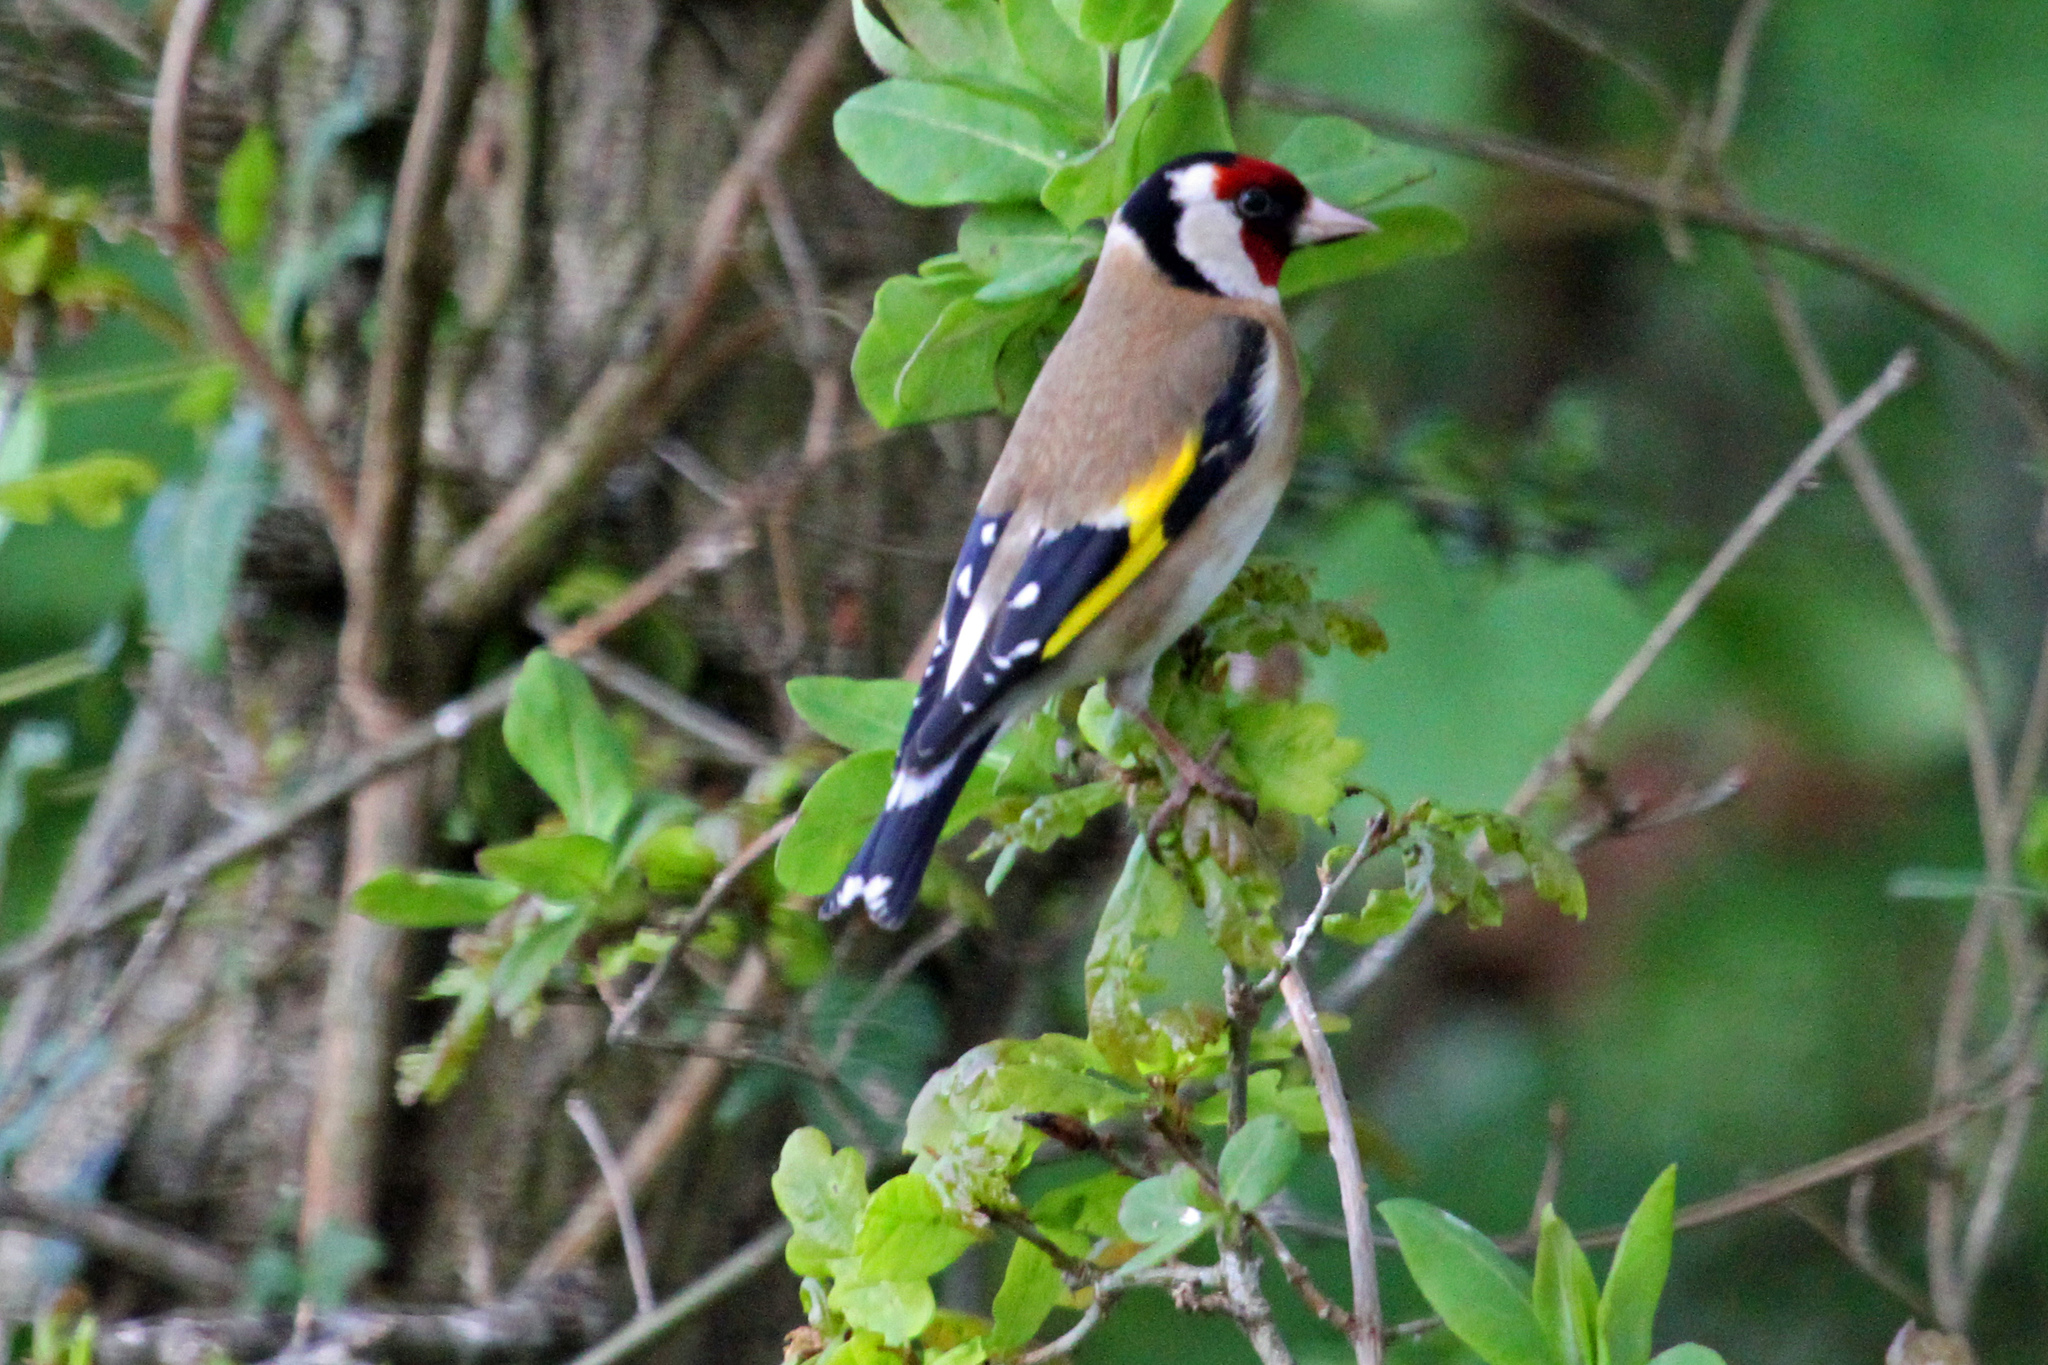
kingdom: Animalia
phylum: Chordata
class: Aves
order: Passeriformes
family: Fringillidae
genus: Carduelis
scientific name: Carduelis carduelis
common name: European goldfinch
